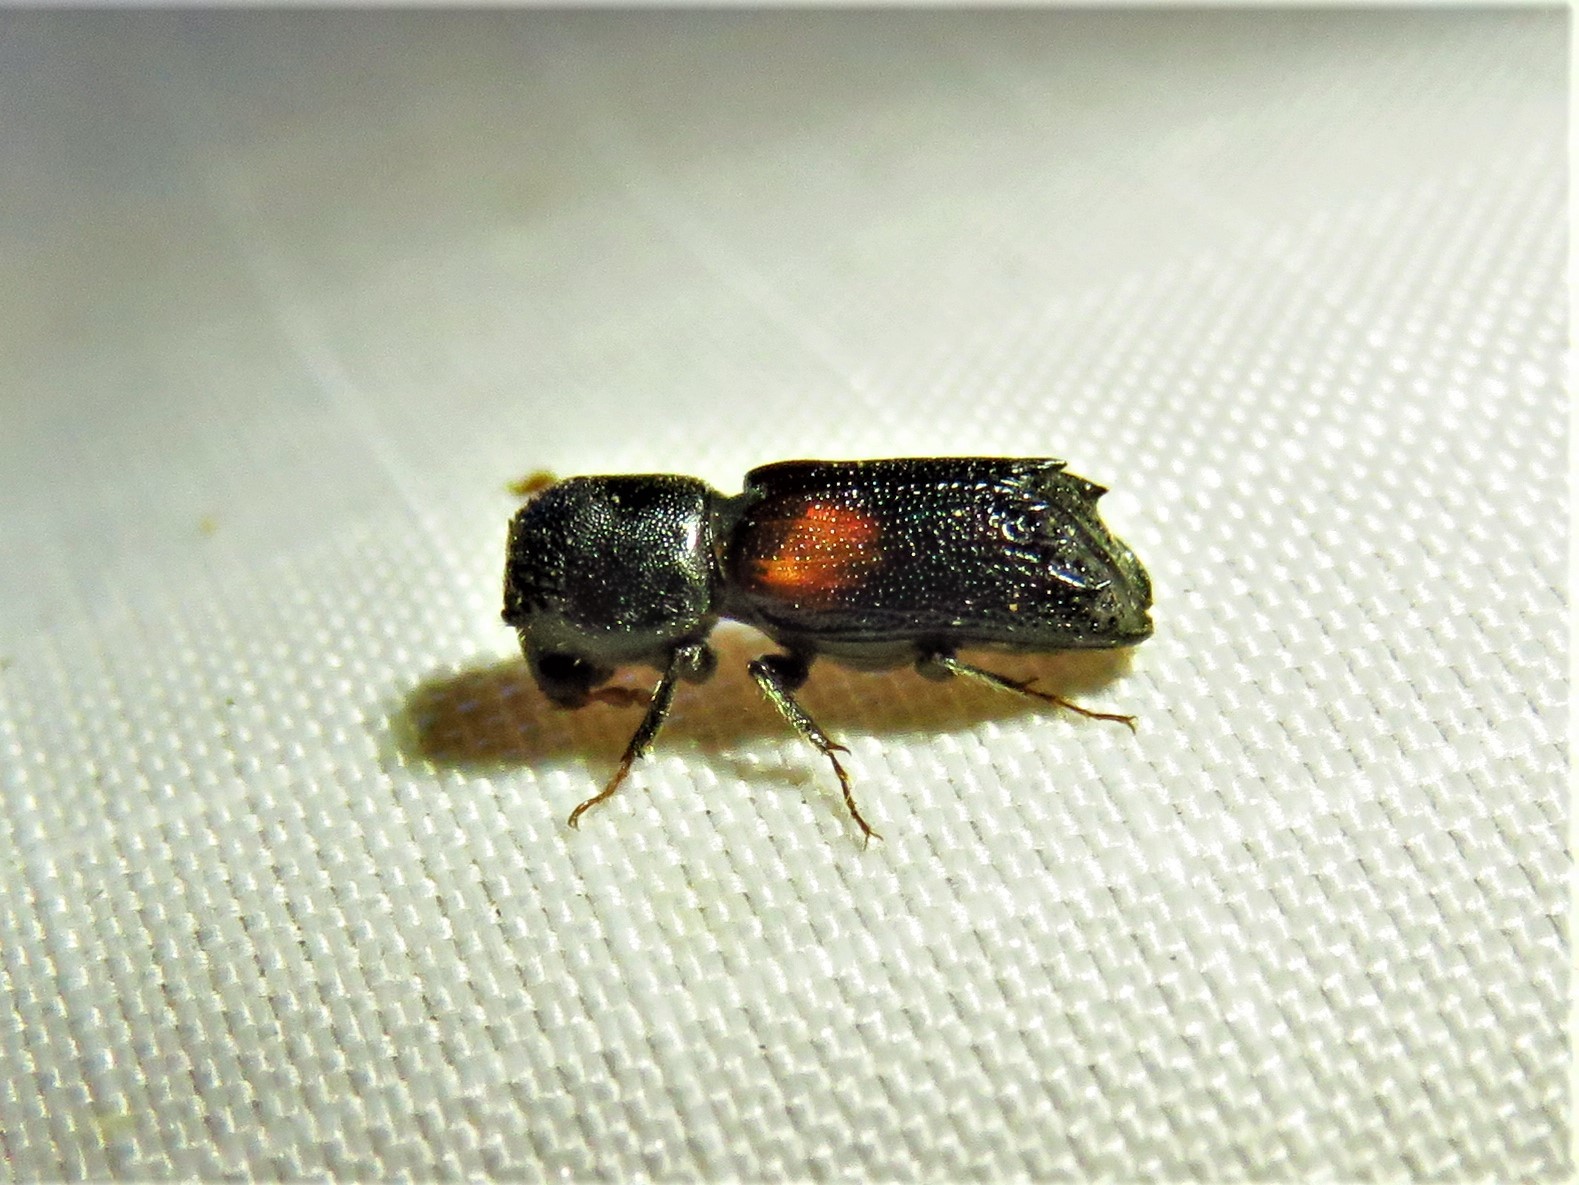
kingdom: Animalia
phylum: Arthropoda
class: Insecta
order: Coleoptera
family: Bostrichidae
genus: Xylobiops
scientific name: Xylobiops basilaris
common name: Red-shouldered bostrichid
